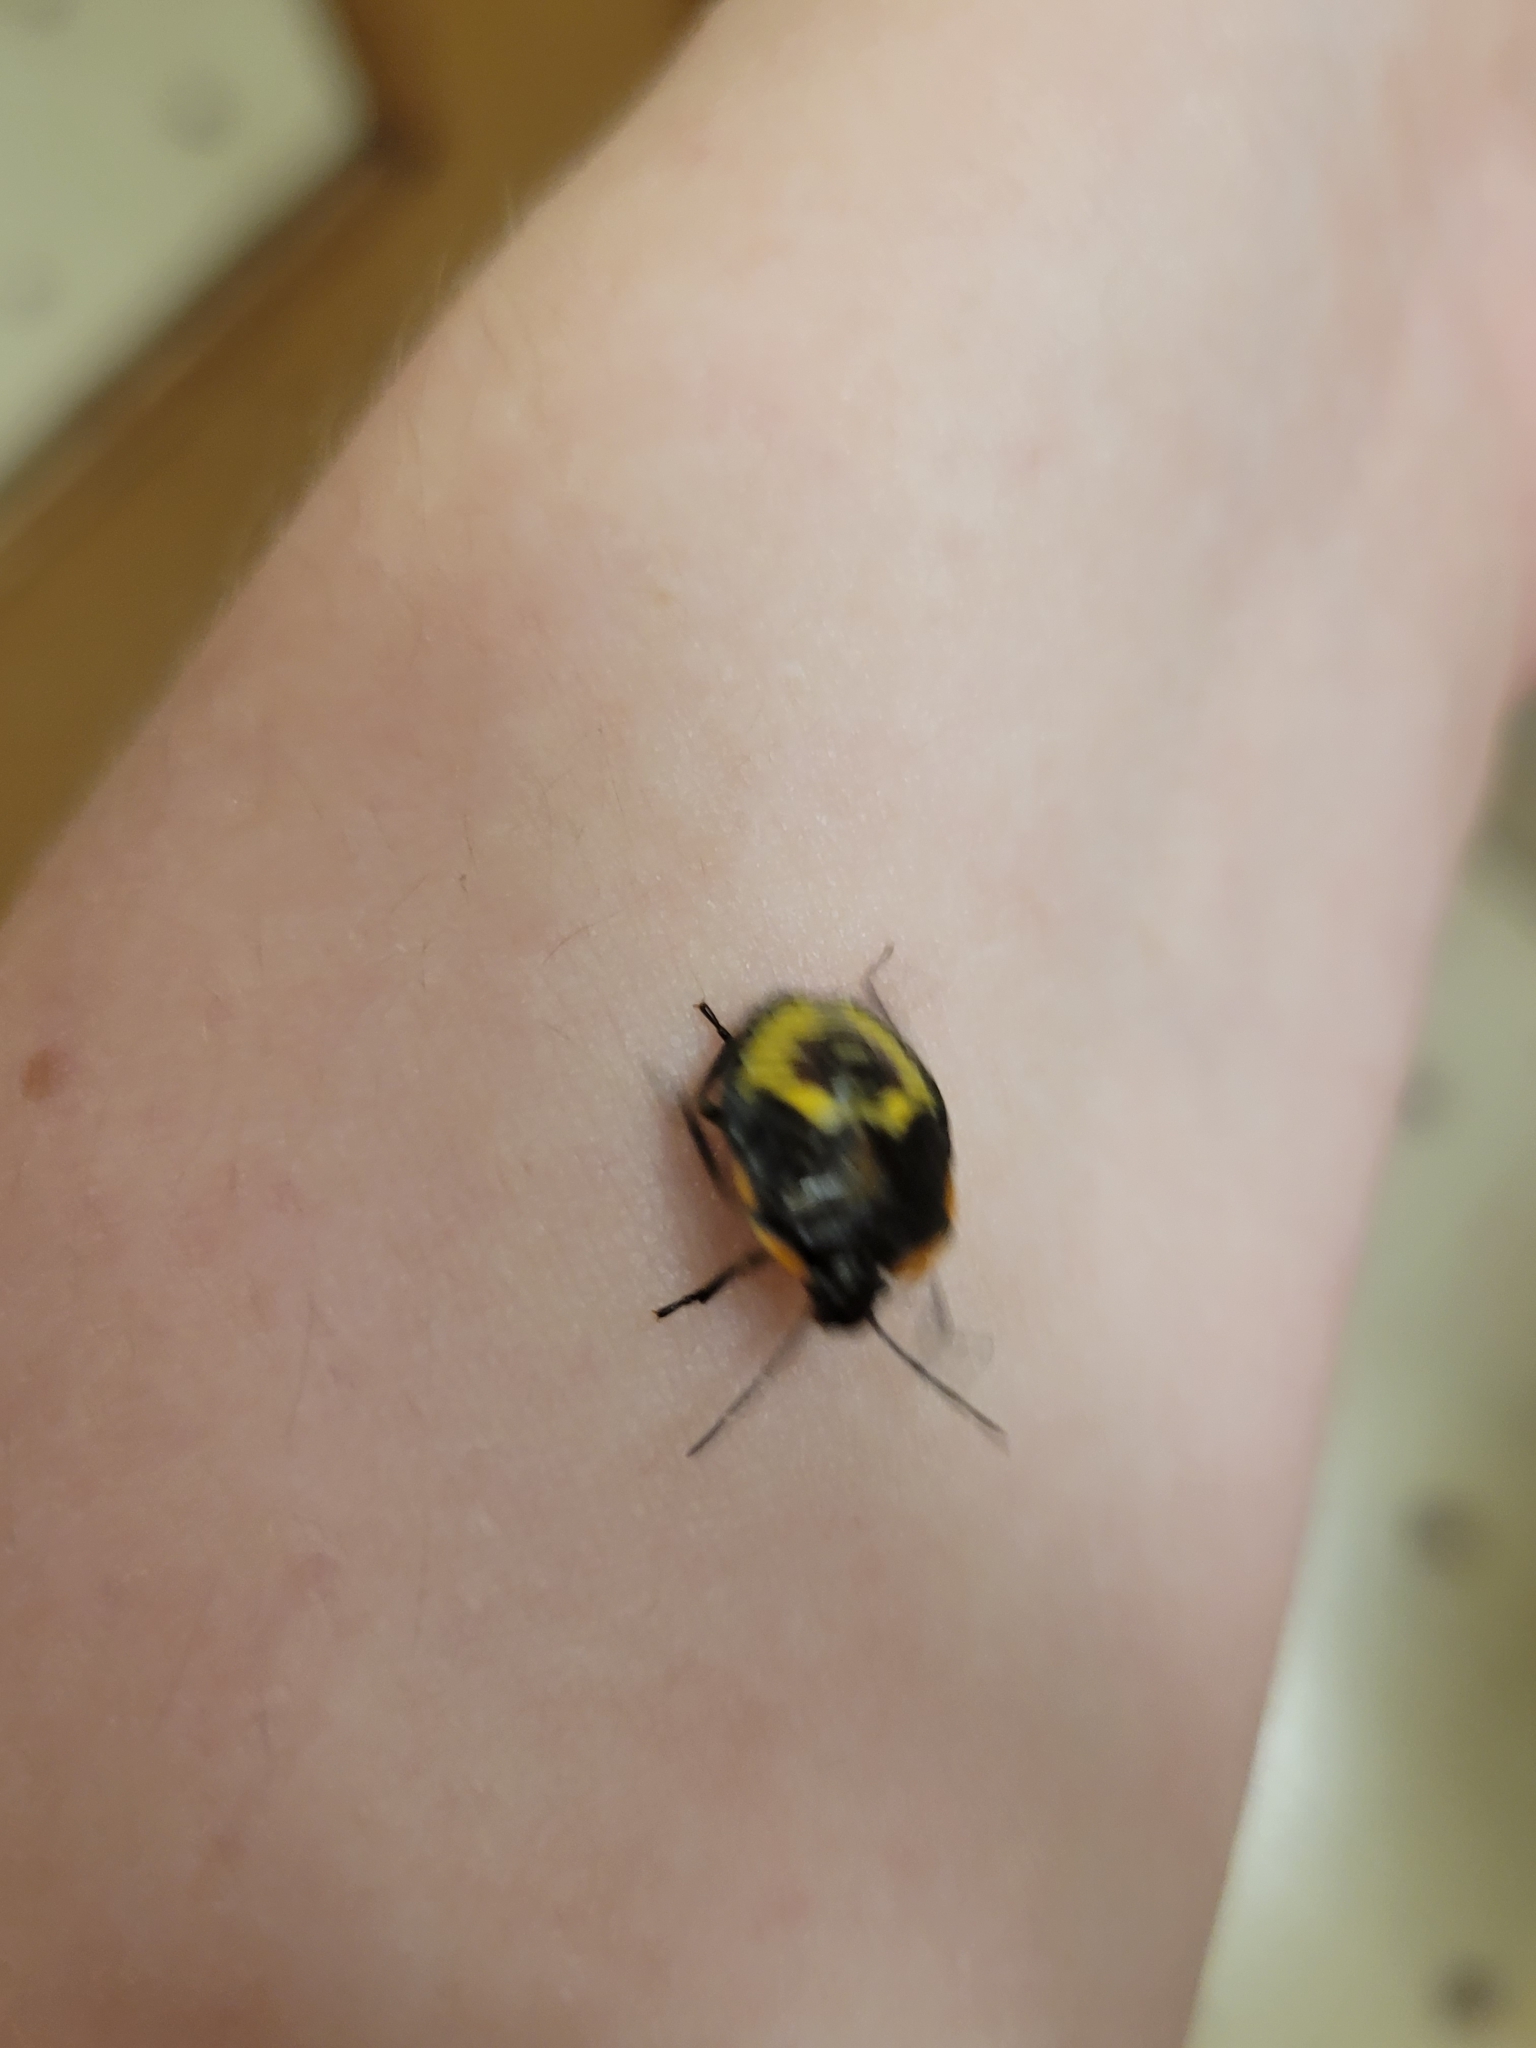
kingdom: Animalia
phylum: Arthropoda
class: Insecta
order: Hemiptera
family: Pentatomidae
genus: Chinavia
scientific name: Chinavia hilaris
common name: Green stink bug
